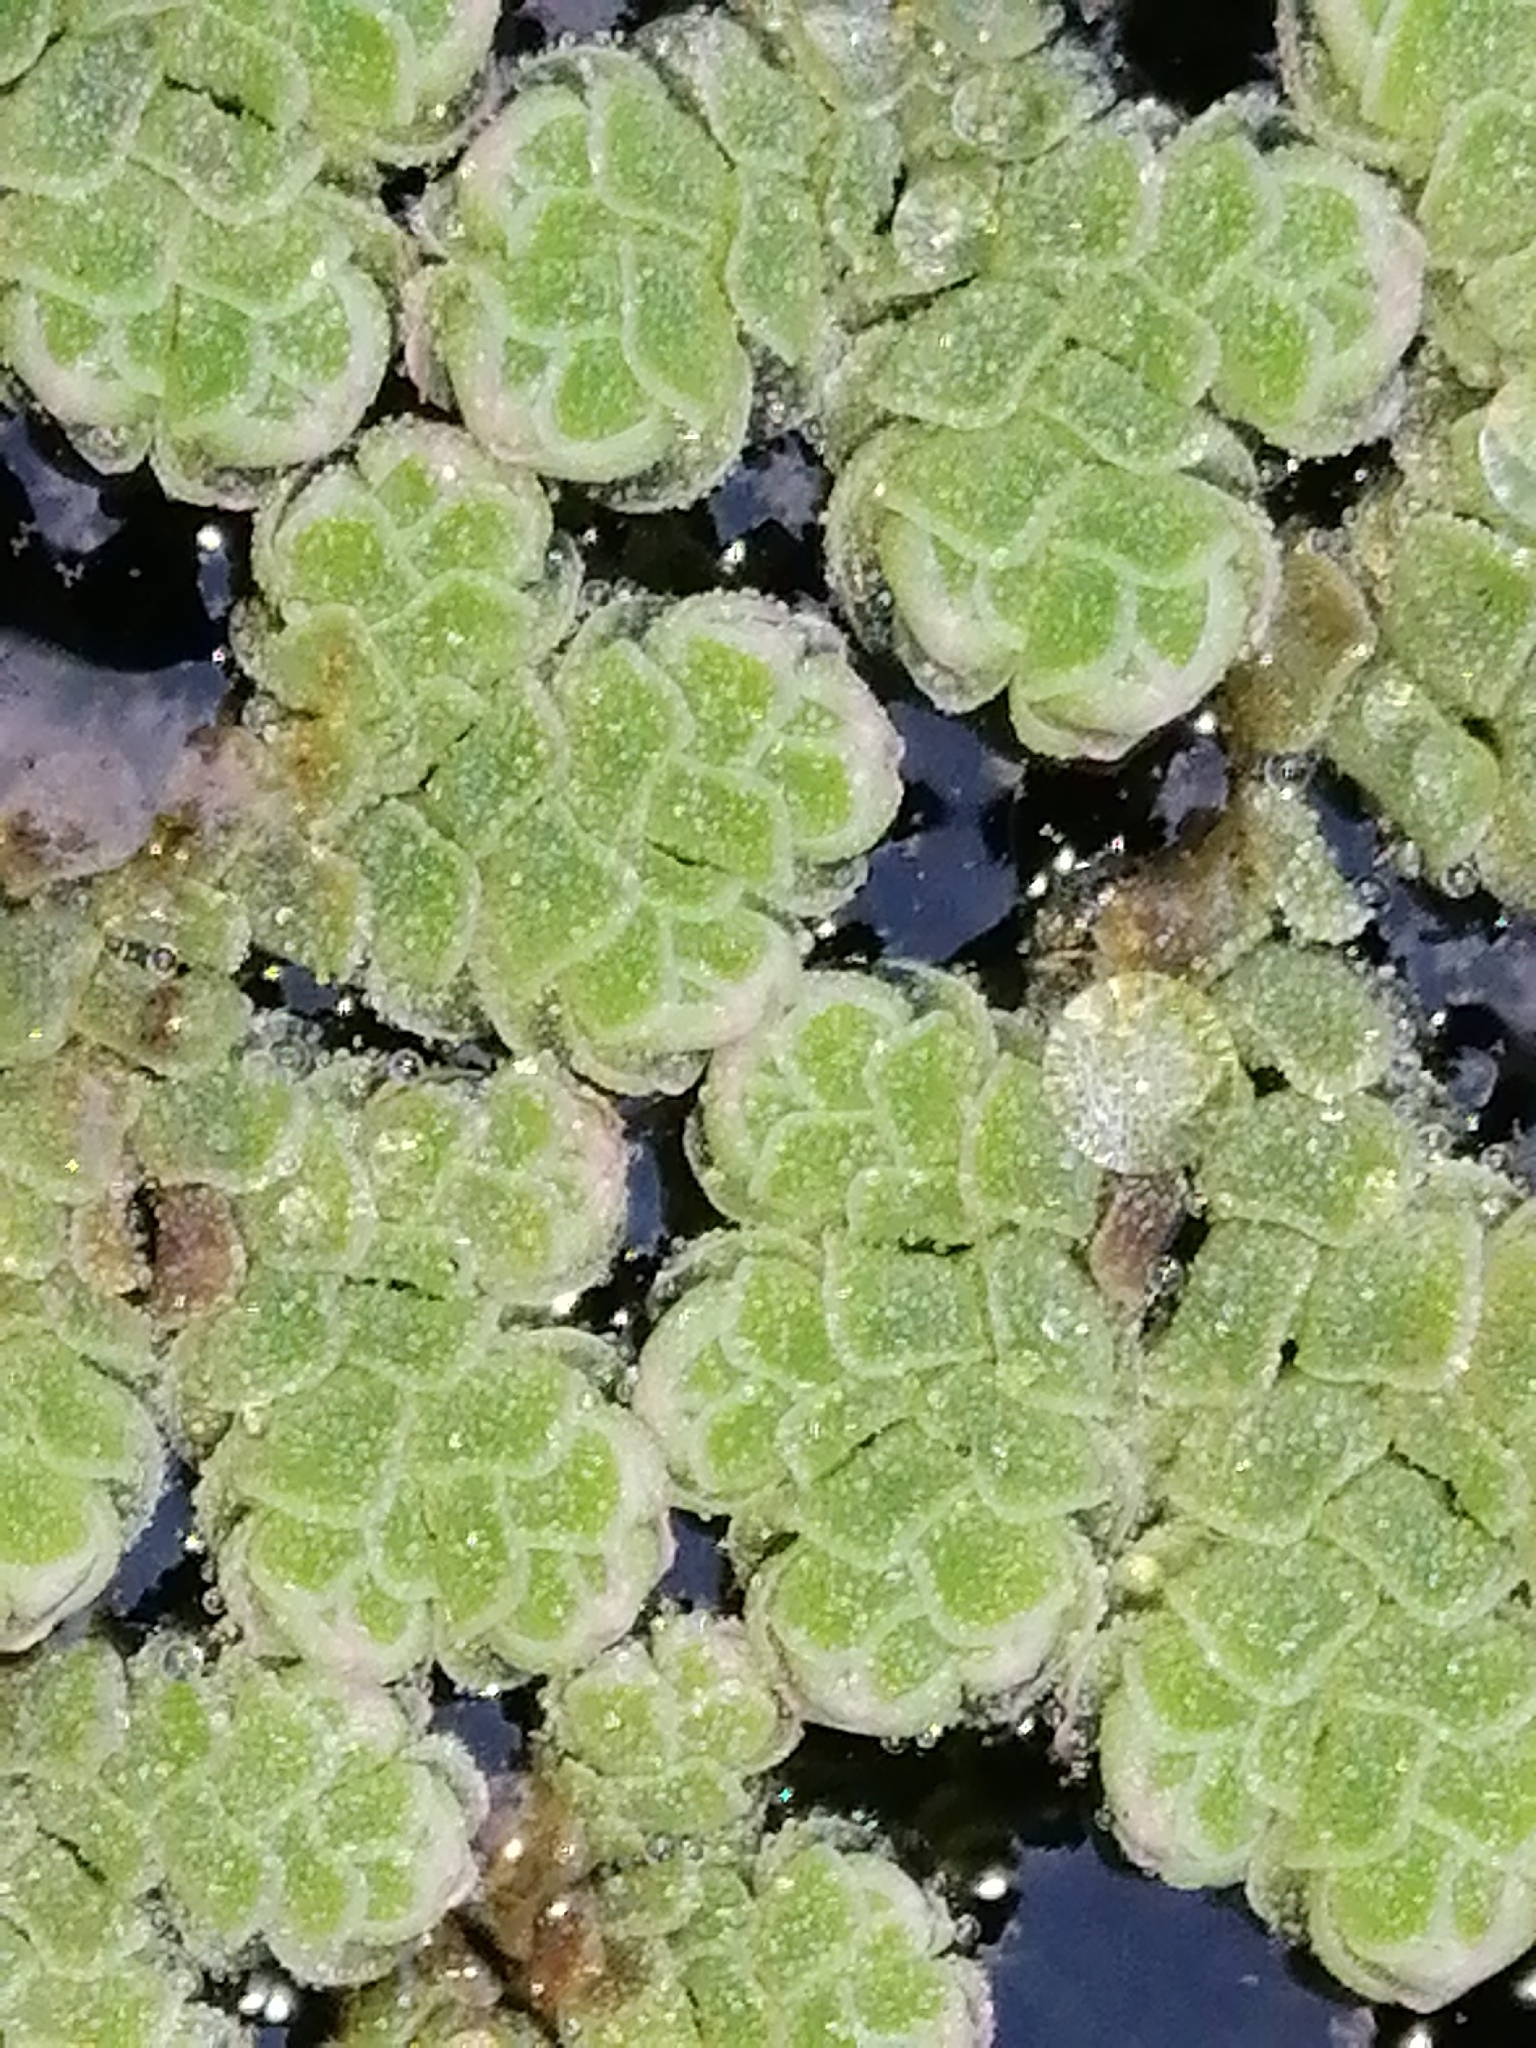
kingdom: Plantae
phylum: Tracheophyta
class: Polypodiopsida
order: Salviniales
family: Salviniaceae
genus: Azolla
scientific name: Azolla rubra
